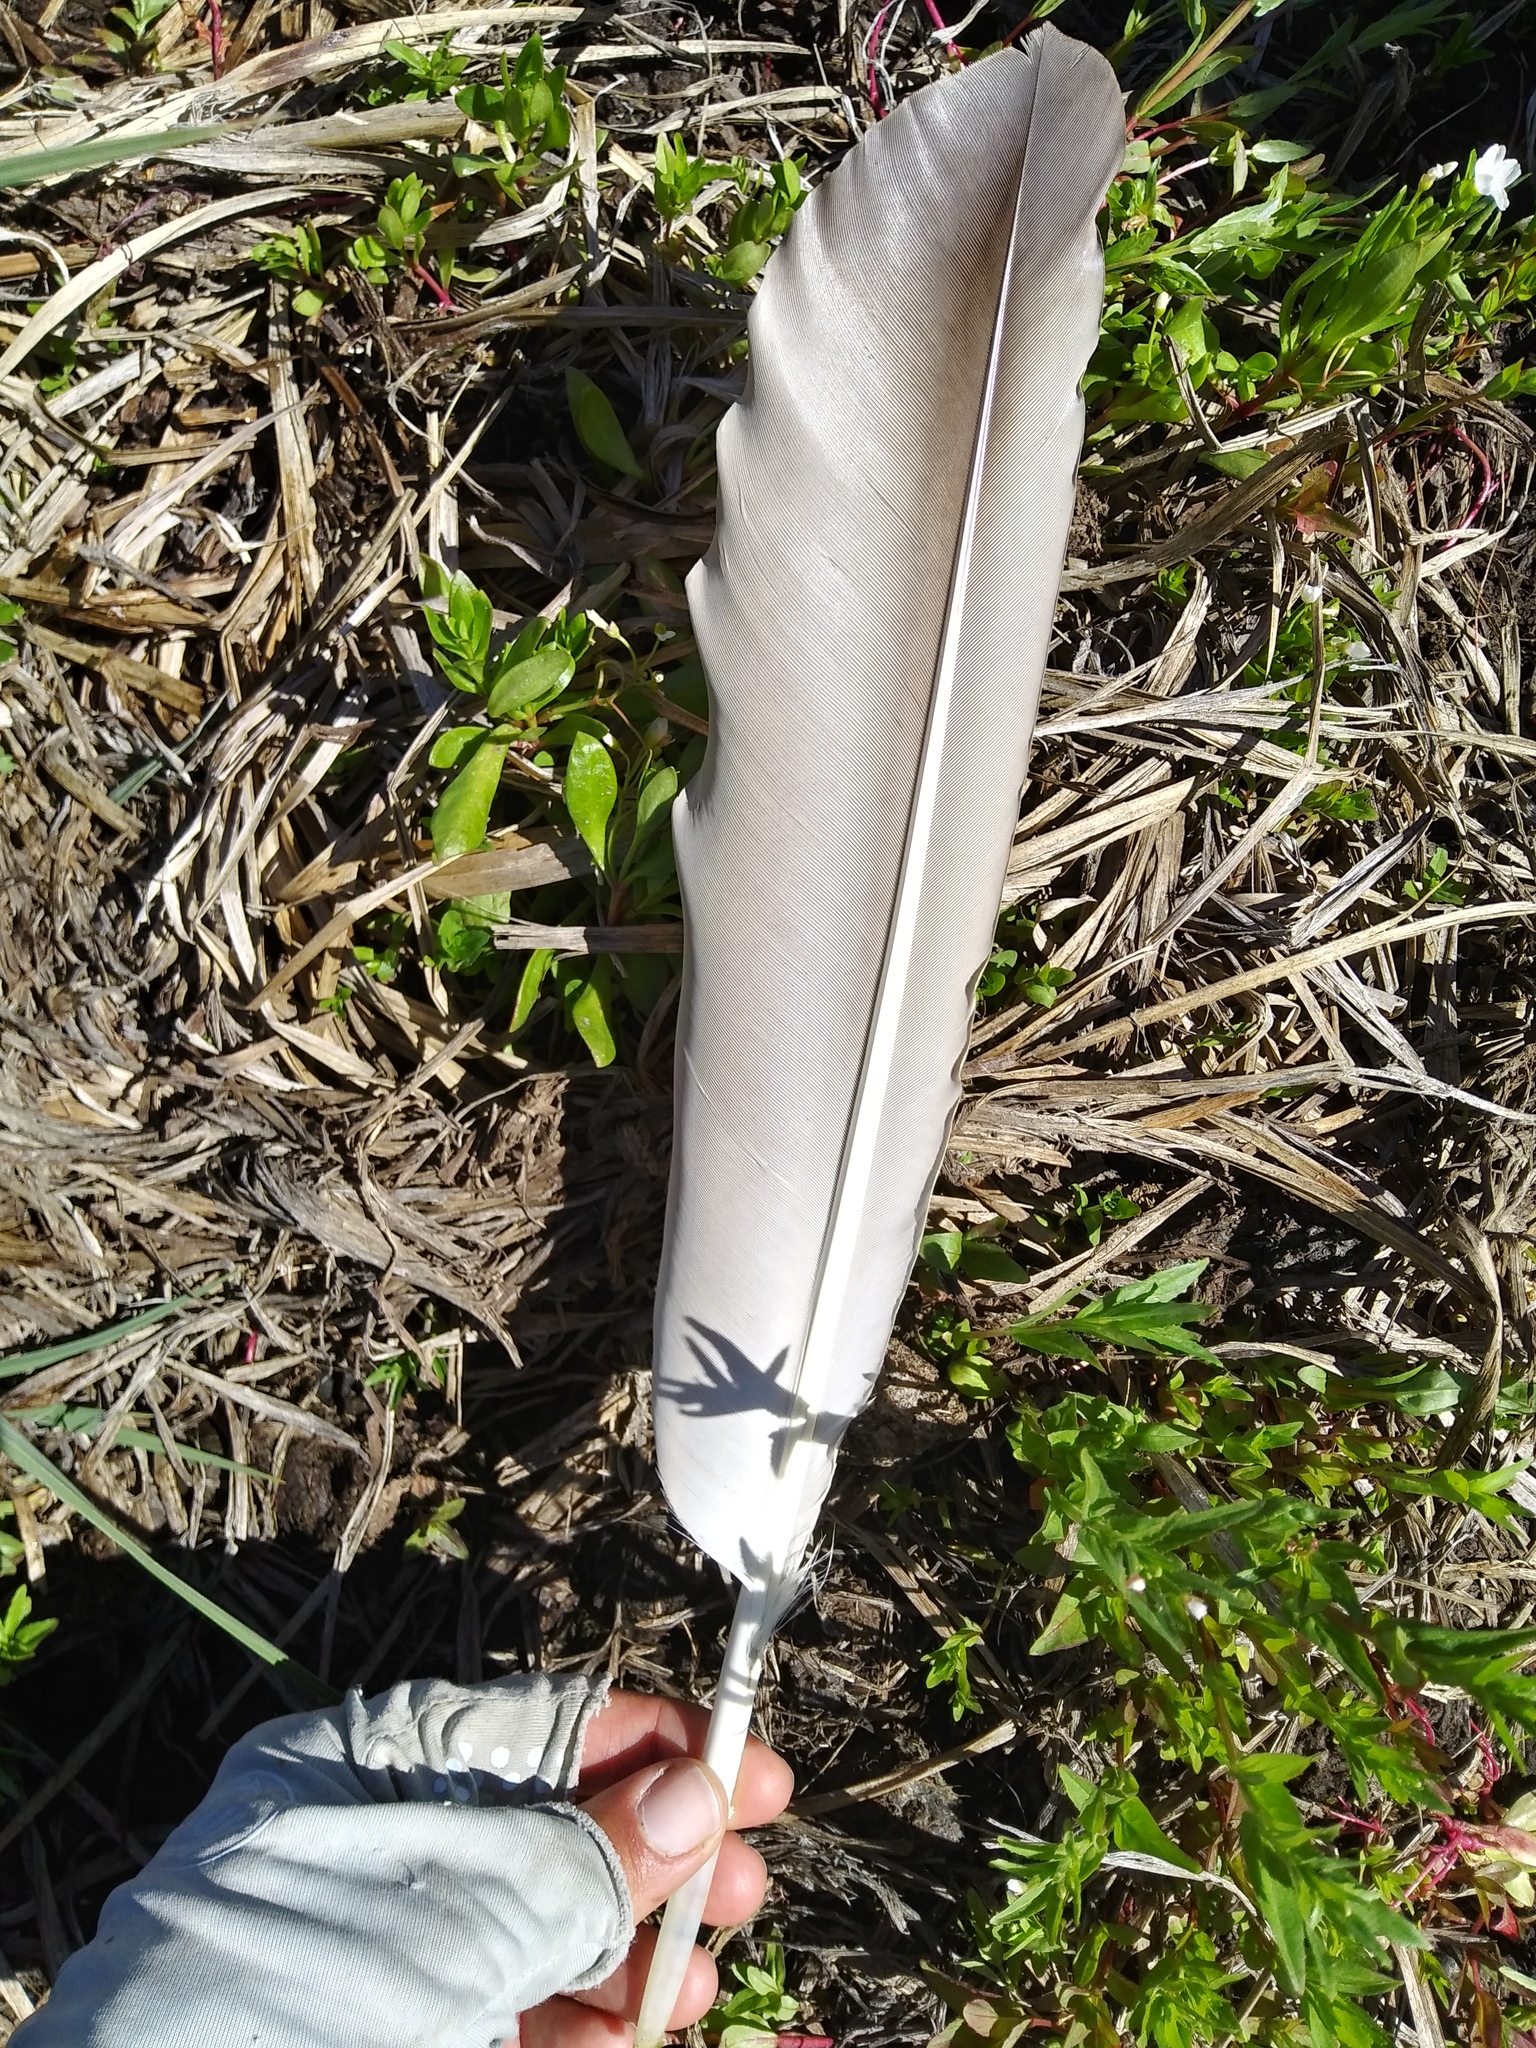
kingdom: Animalia
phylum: Chordata
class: Aves
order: Gruiformes
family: Gruidae
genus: Grus
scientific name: Grus canadensis
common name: Sandhill crane
